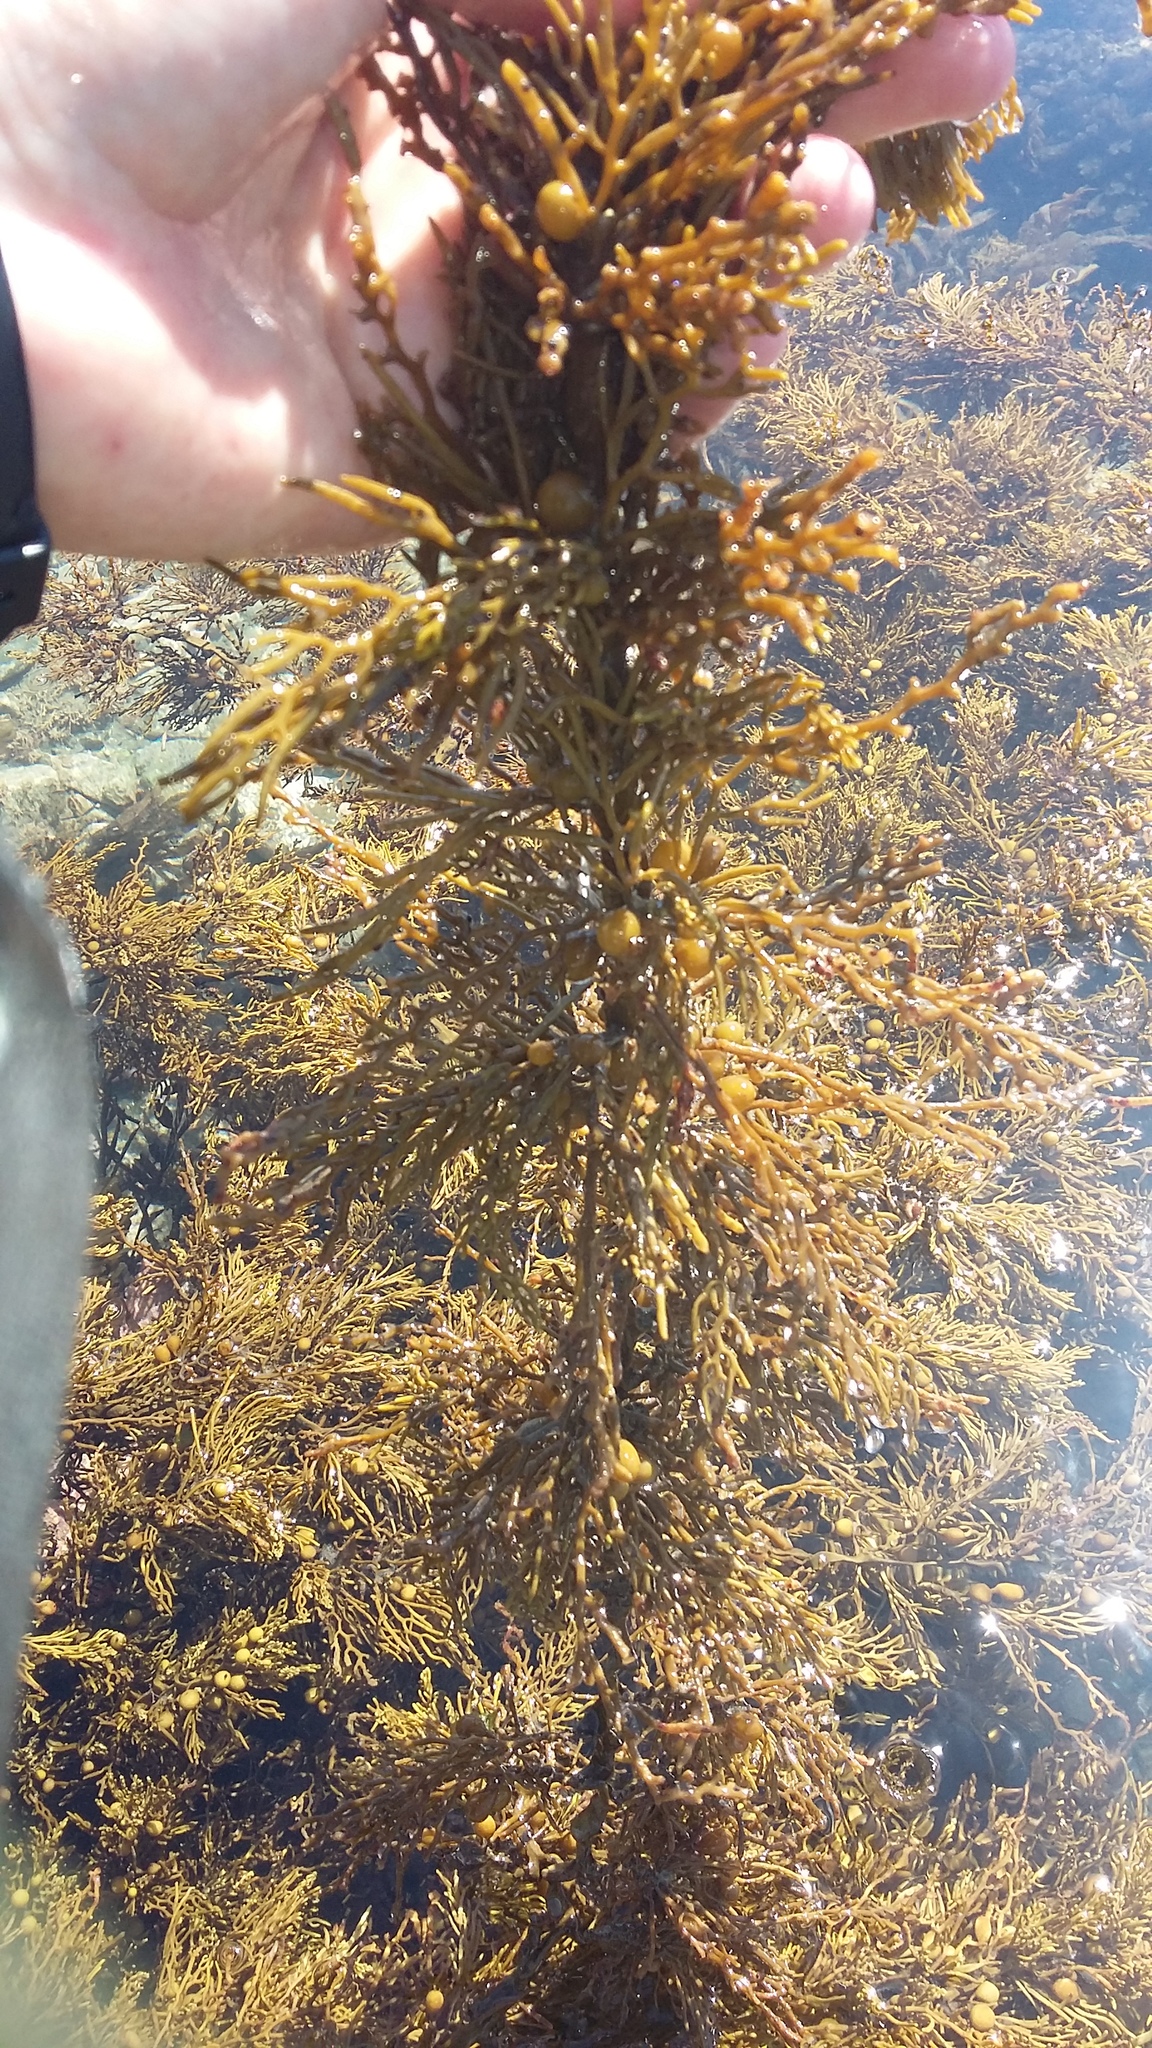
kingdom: Chromista
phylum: Ochrophyta
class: Phaeophyceae
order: Fucales
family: Sargassaceae
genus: Cystophora
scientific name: Cystophora scalaris
